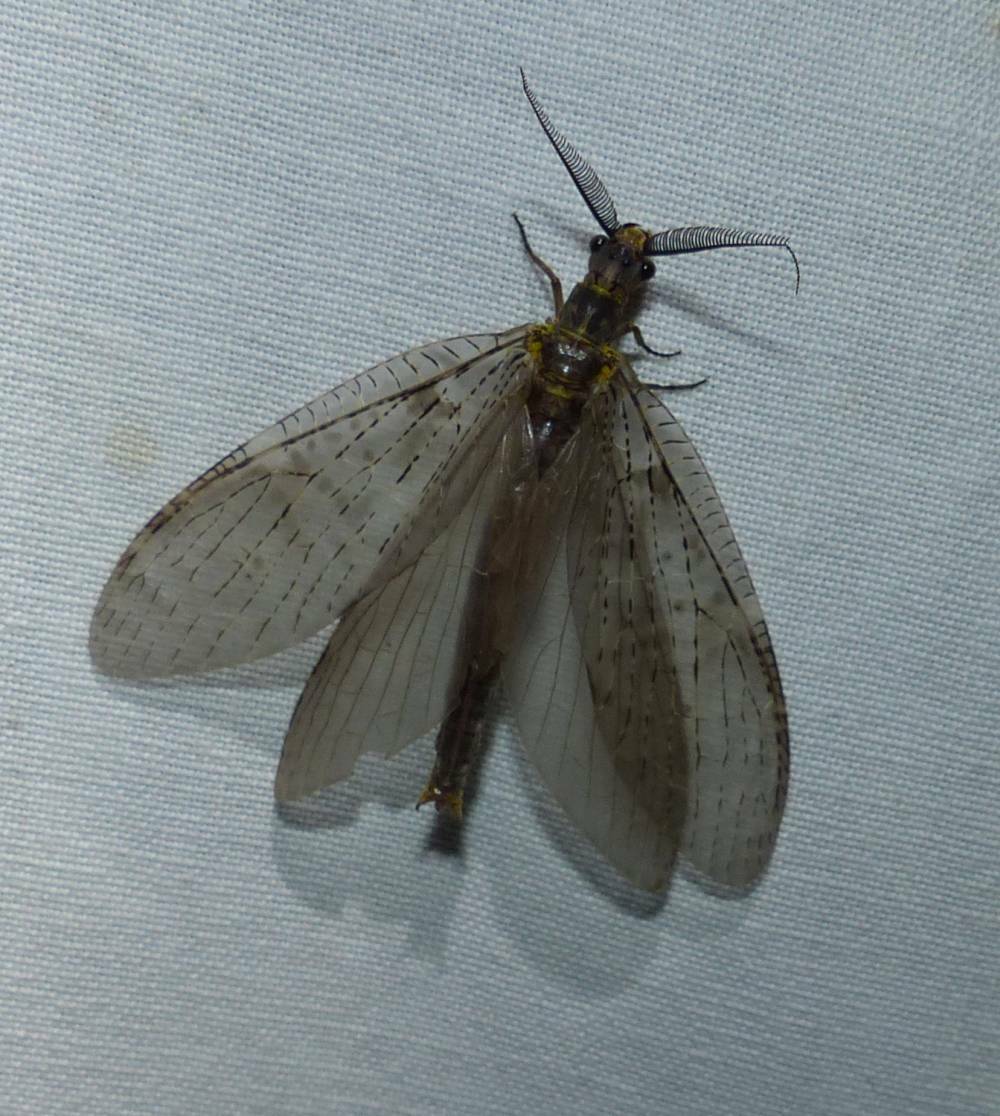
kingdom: Animalia
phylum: Arthropoda
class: Insecta
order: Megaloptera
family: Corydalidae
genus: Chauliodes
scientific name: Chauliodes pectinicornis
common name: Summer fishfly
